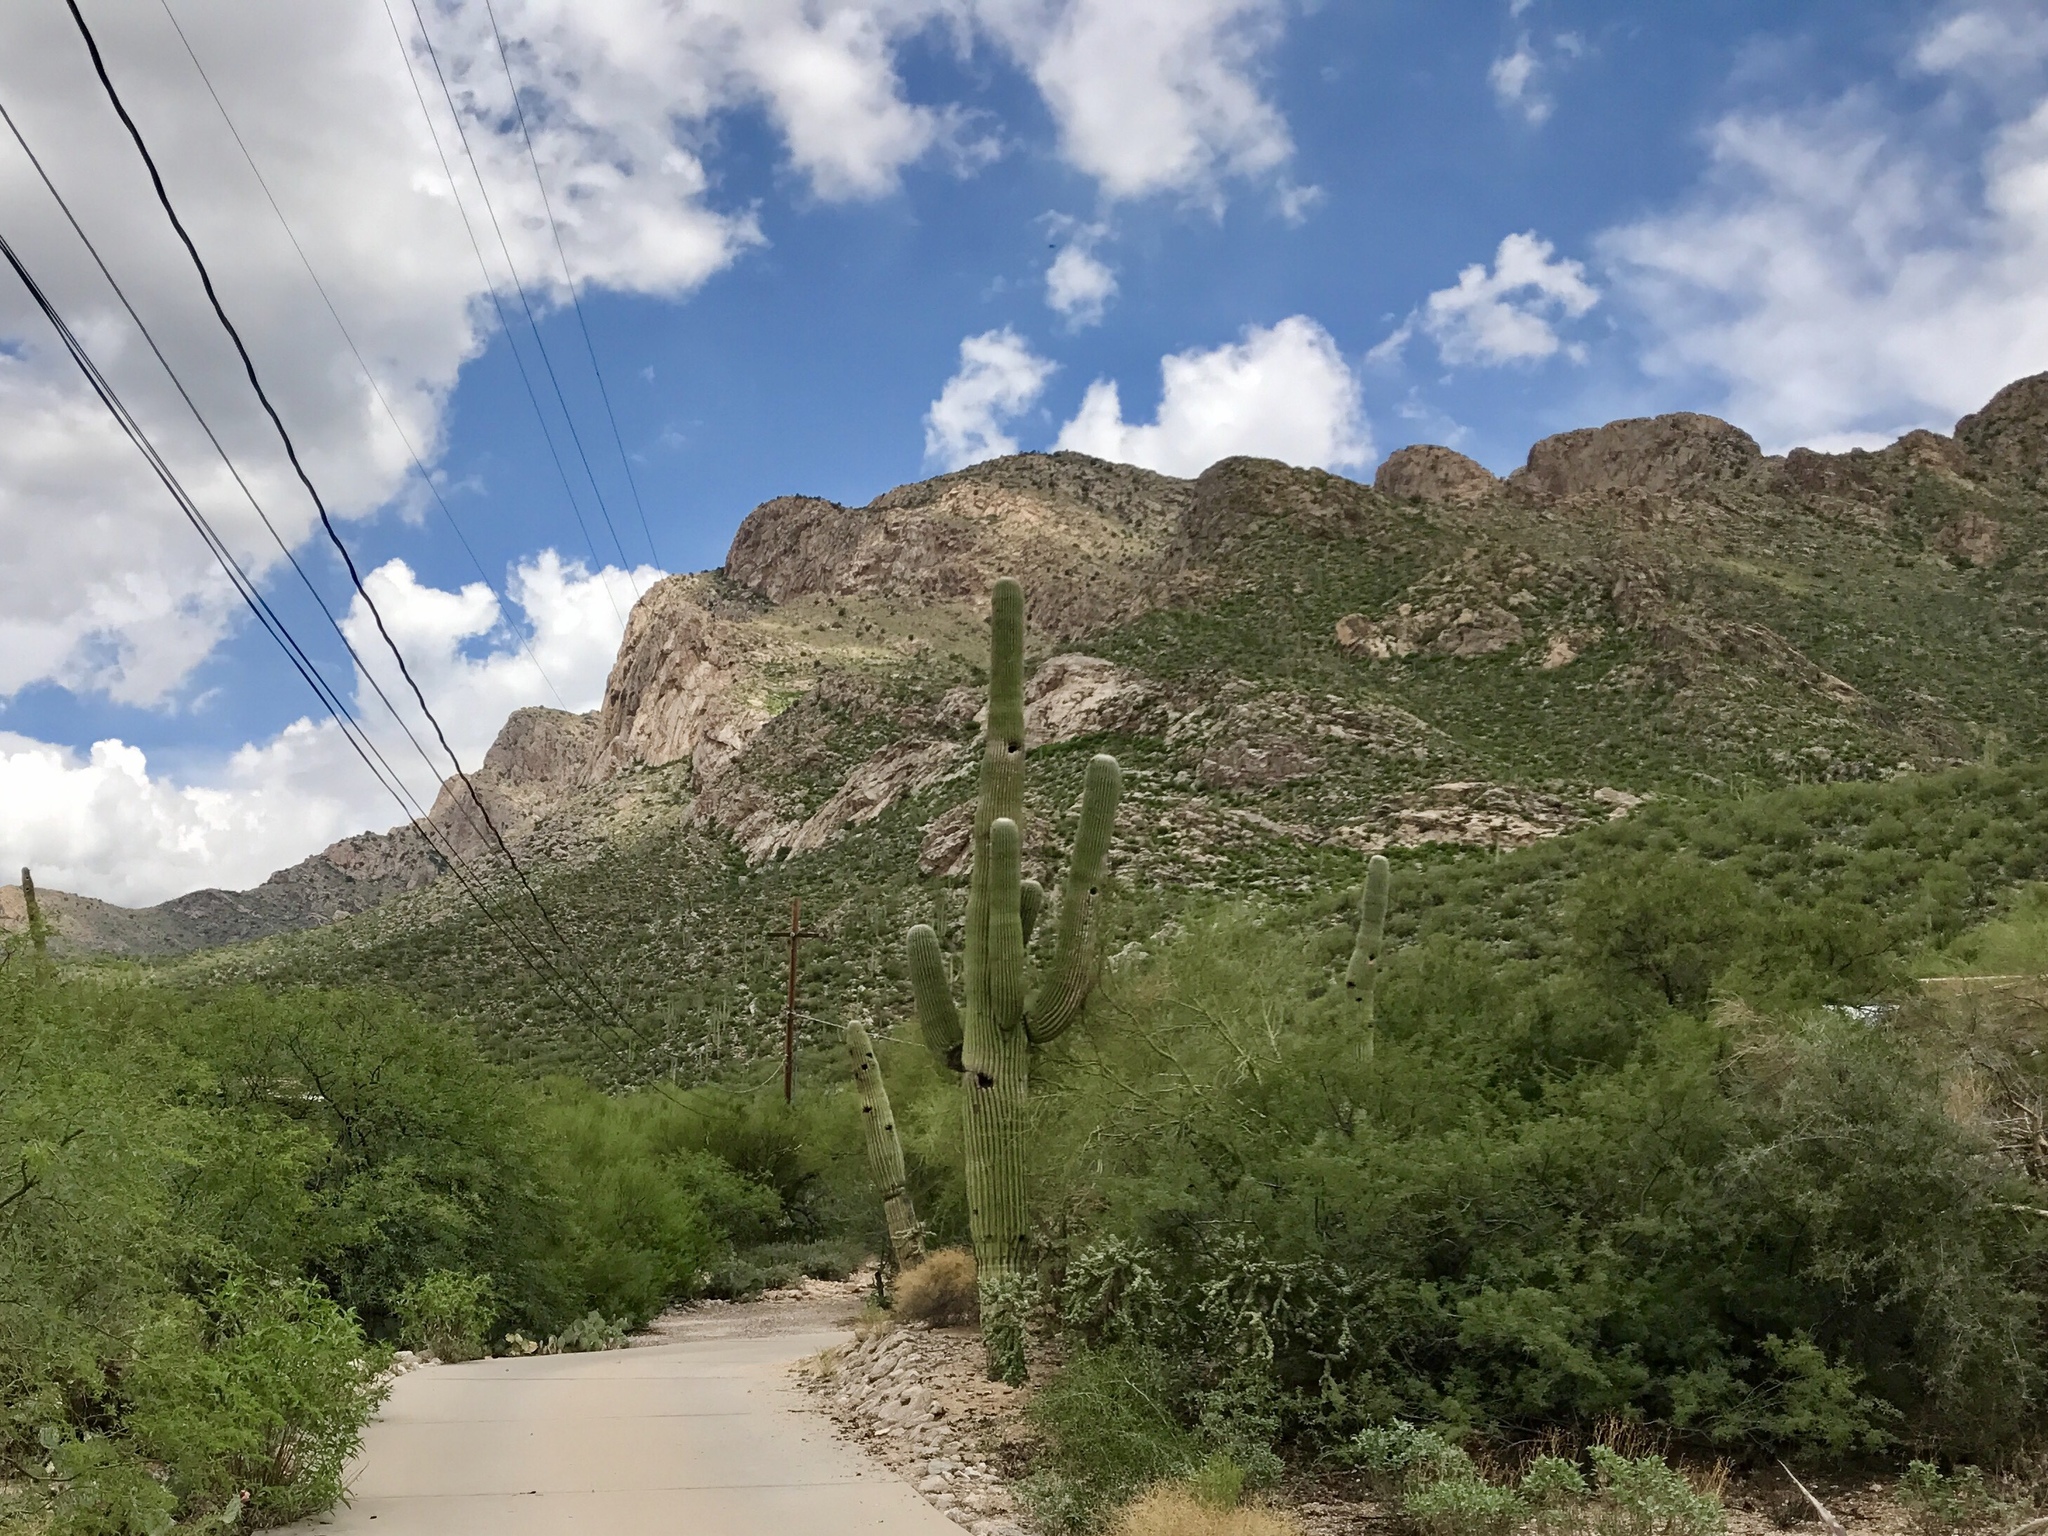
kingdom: Plantae
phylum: Tracheophyta
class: Magnoliopsida
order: Caryophyllales
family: Cactaceae
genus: Carnegiea
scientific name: Carnegiea gigantea
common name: Saguaro
